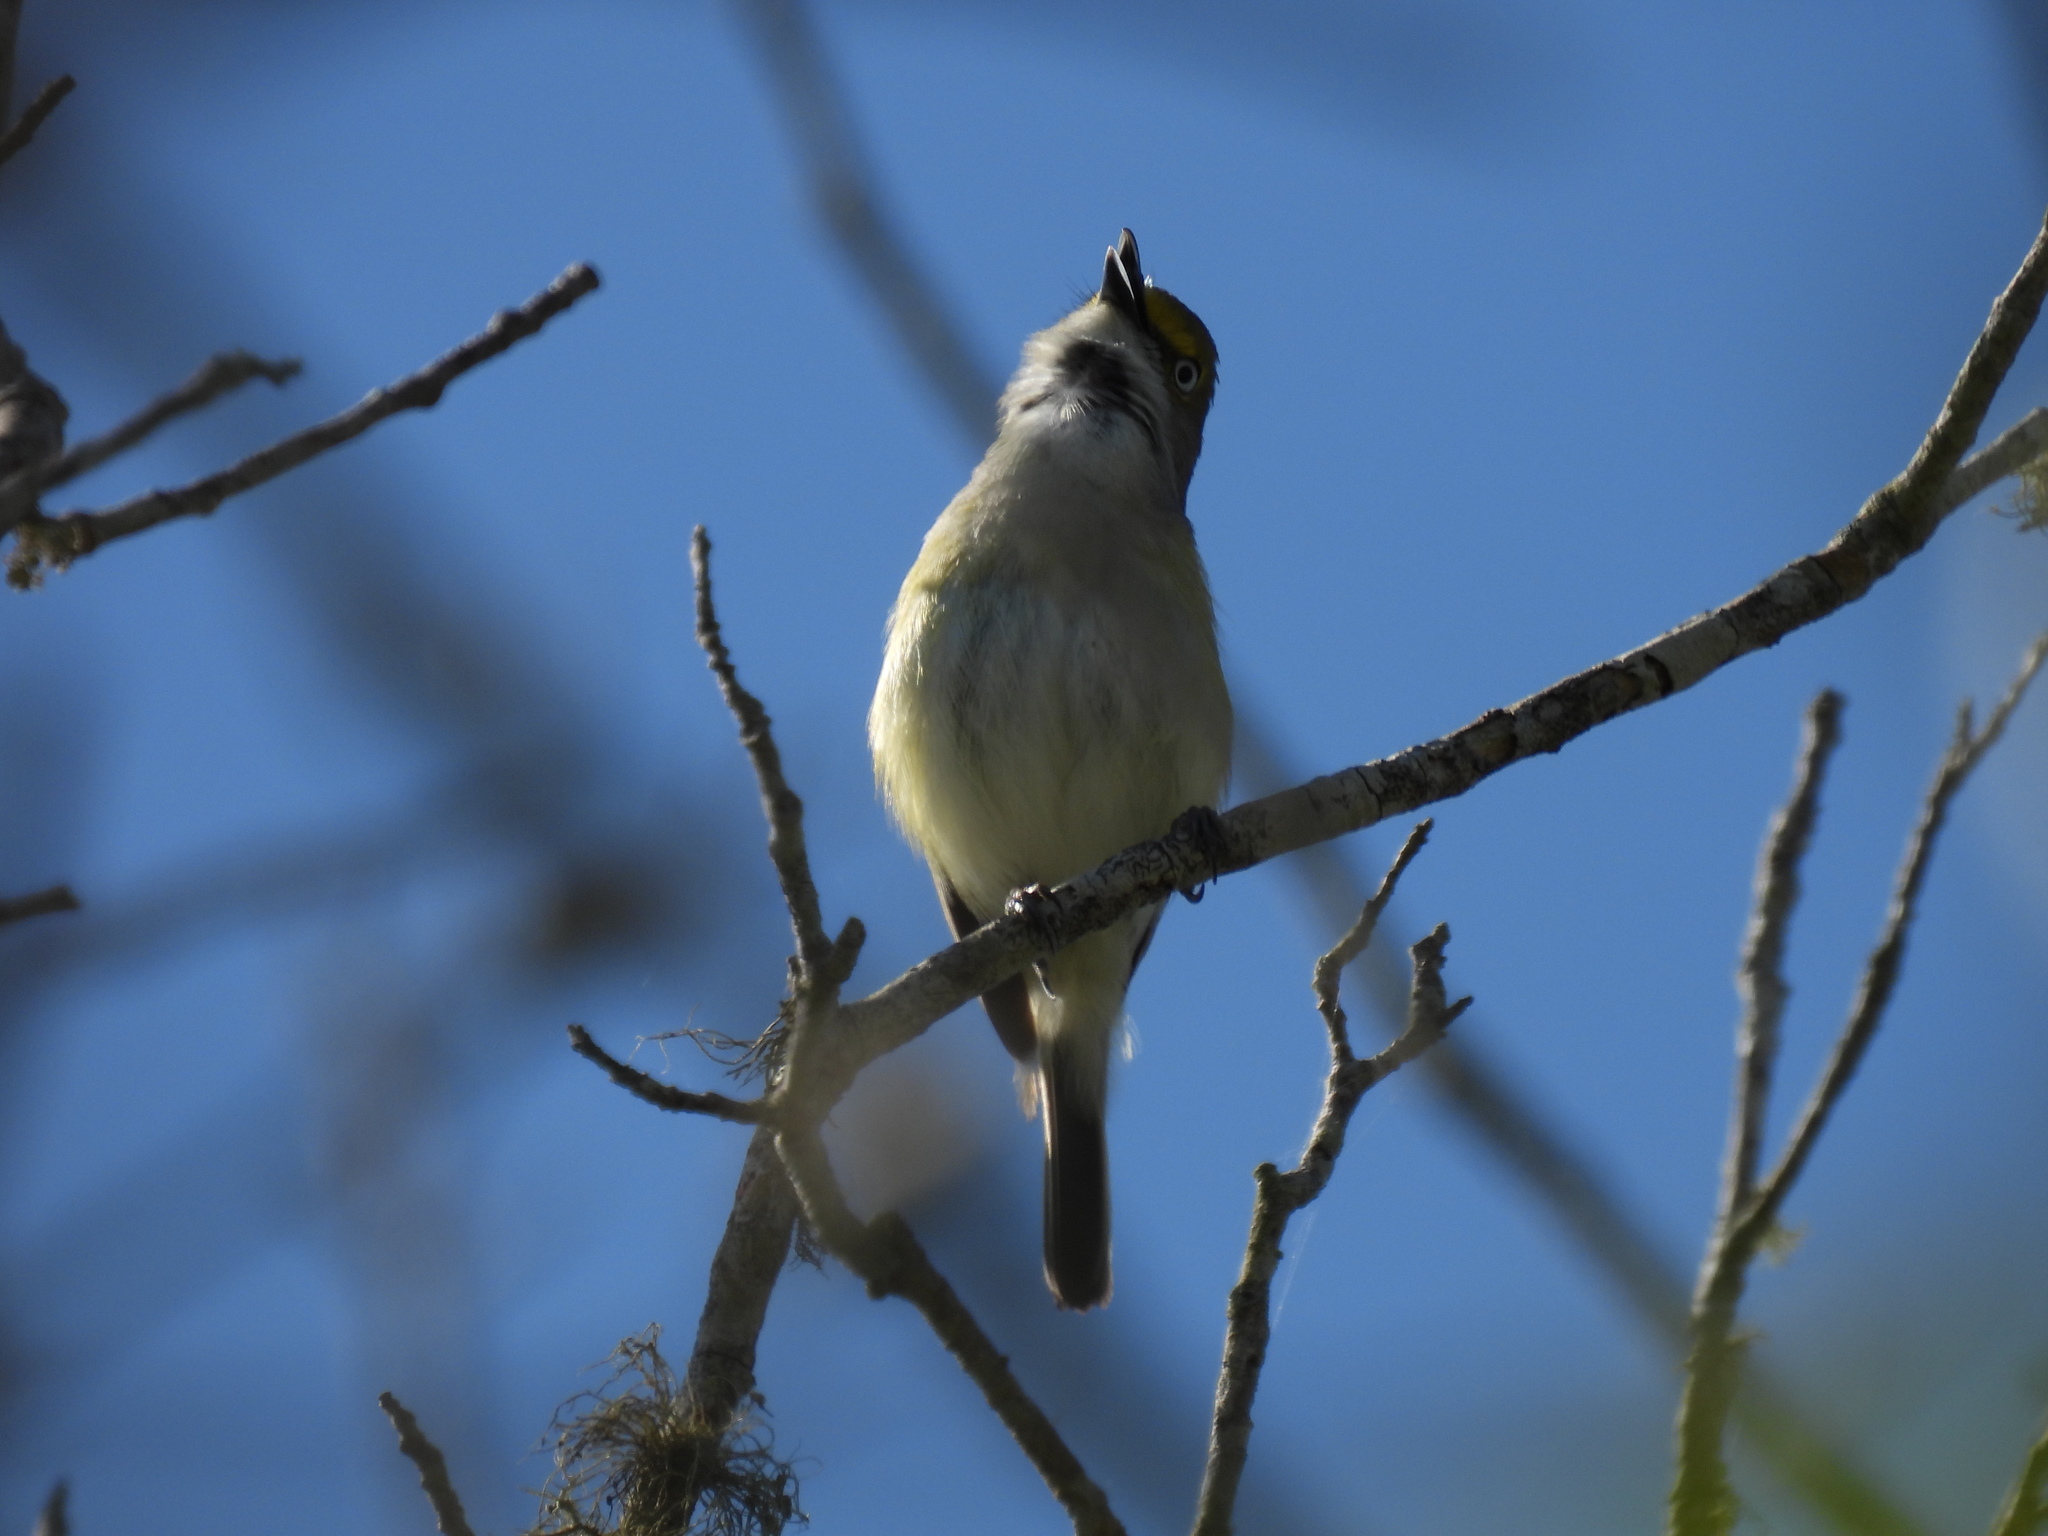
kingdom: Animalia
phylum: Chordata
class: Aves
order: Passeriformes
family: Vireonidae
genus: Vireo
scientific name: Vireo griseus
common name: White-eyed vireo
